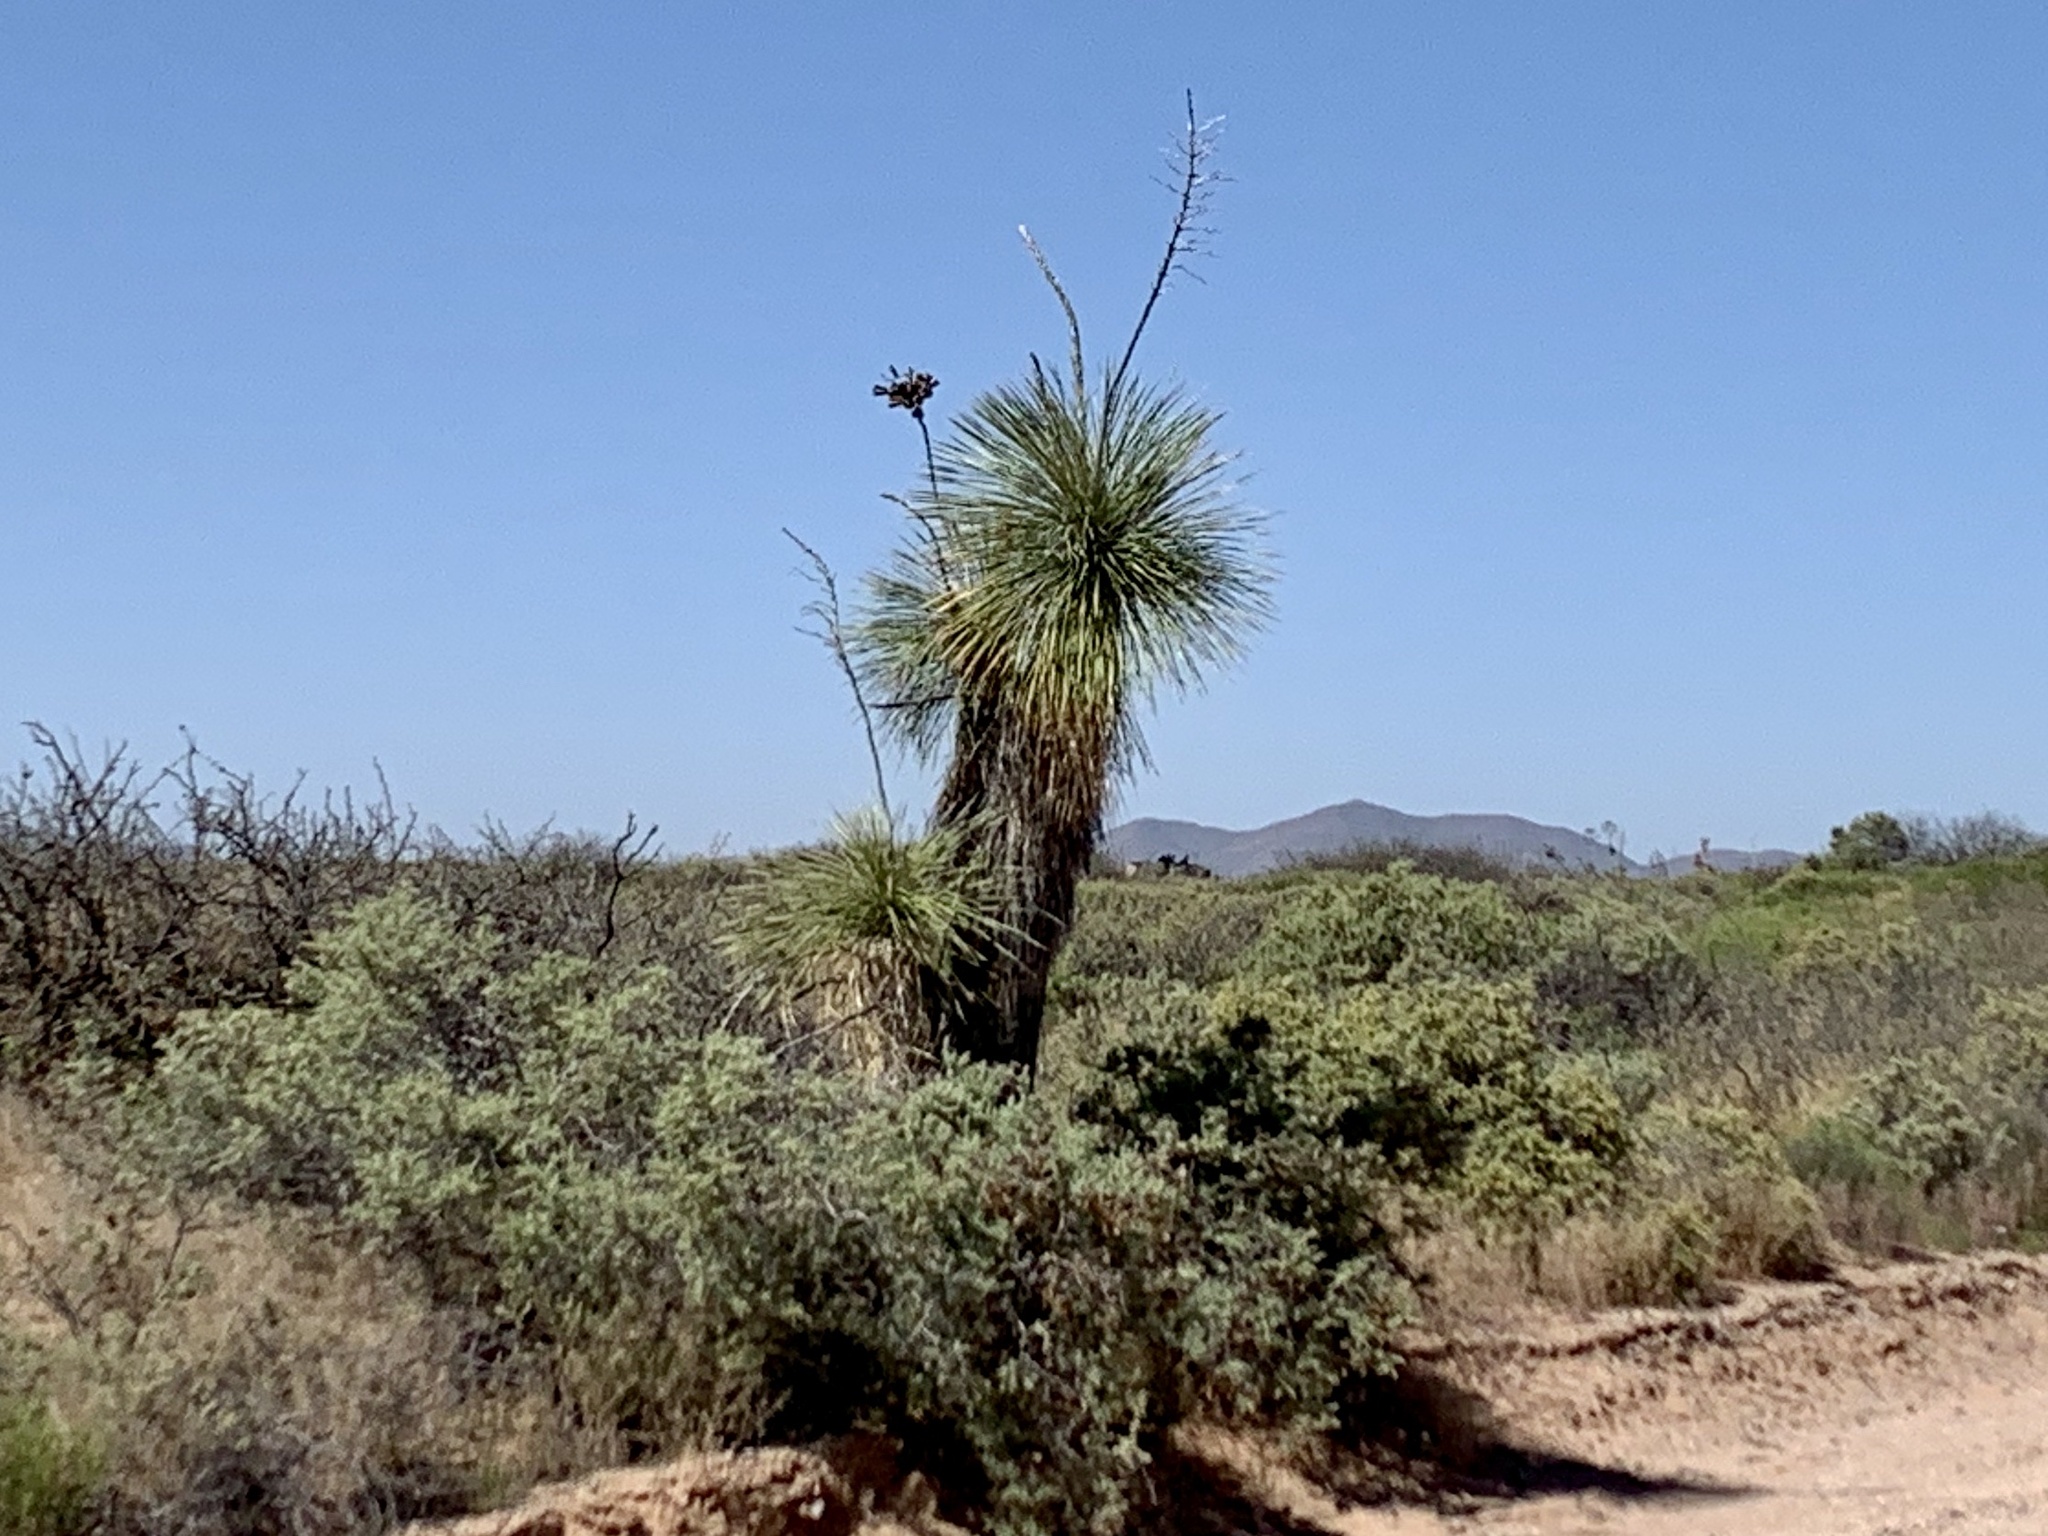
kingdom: Plantae
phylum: Tracheophyta
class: Liliopsida
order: Asparagales
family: Asparagaceae
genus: Yucca
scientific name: Yucca elata
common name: Palmella
